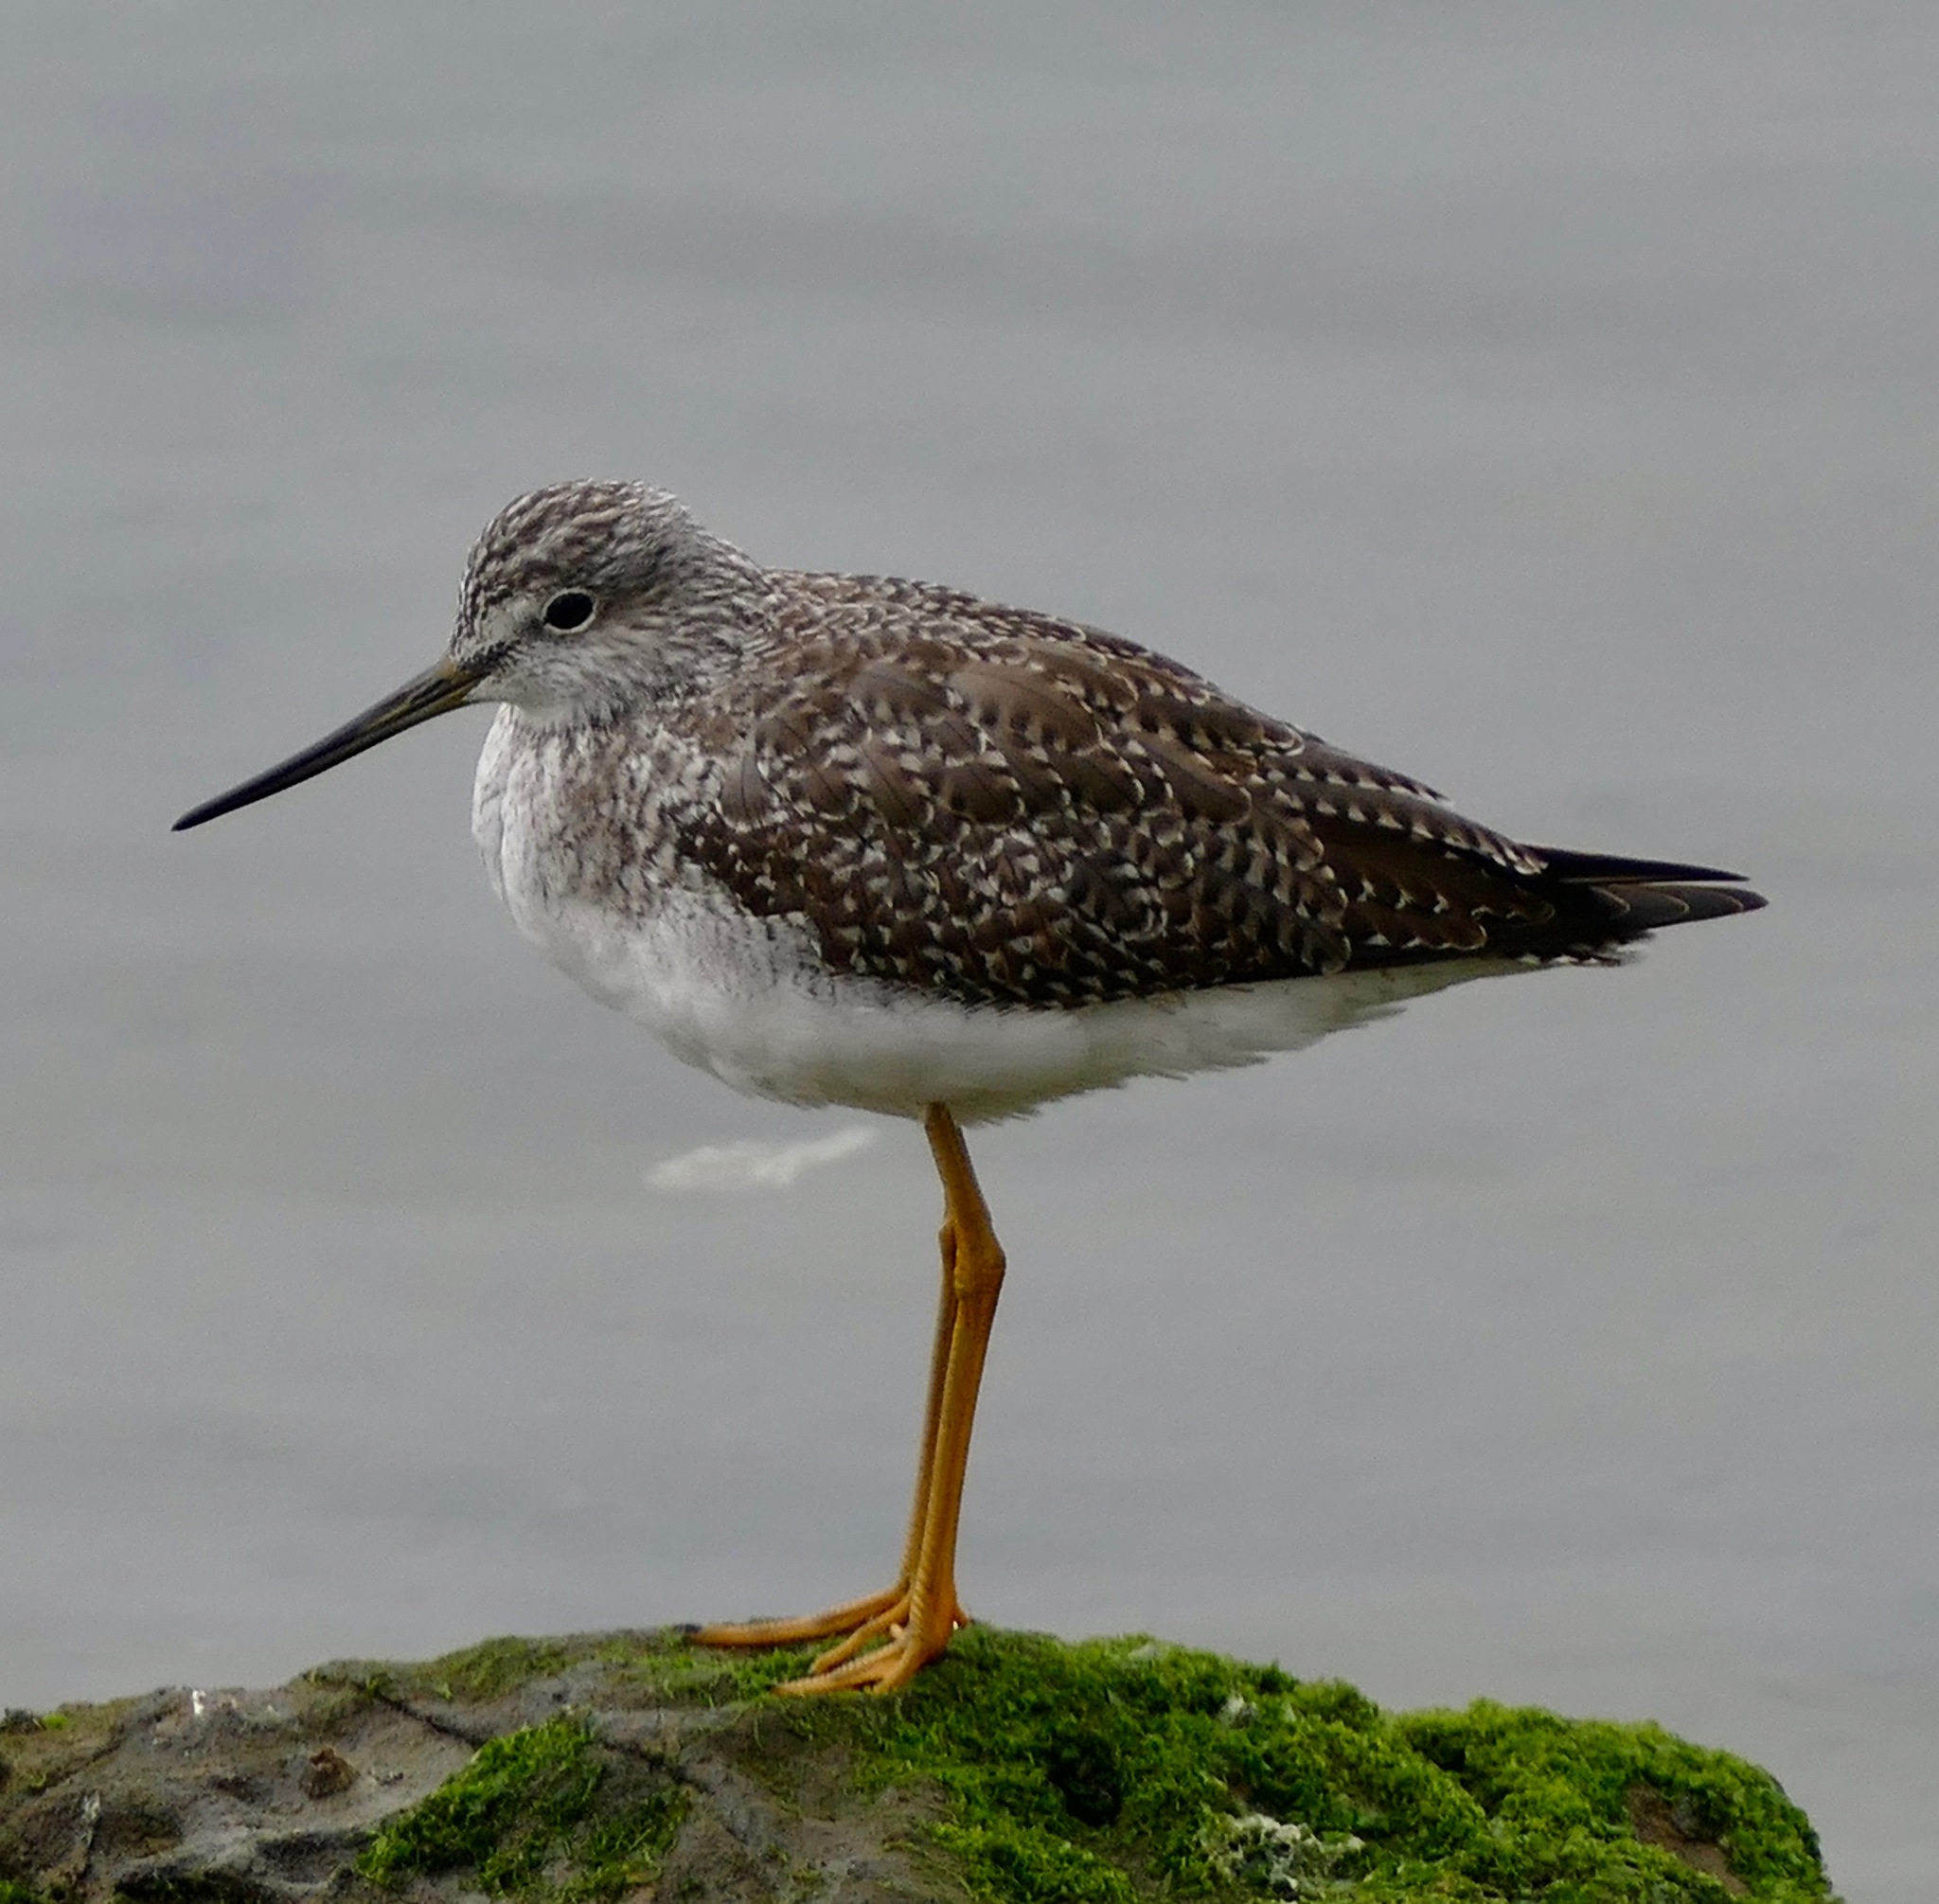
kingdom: Animalia
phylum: Chordata
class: Aves
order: Charadriiformes
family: Scolopacidae
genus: Tringa
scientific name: Tringa melanoleuca
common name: Greater yellowlegs
